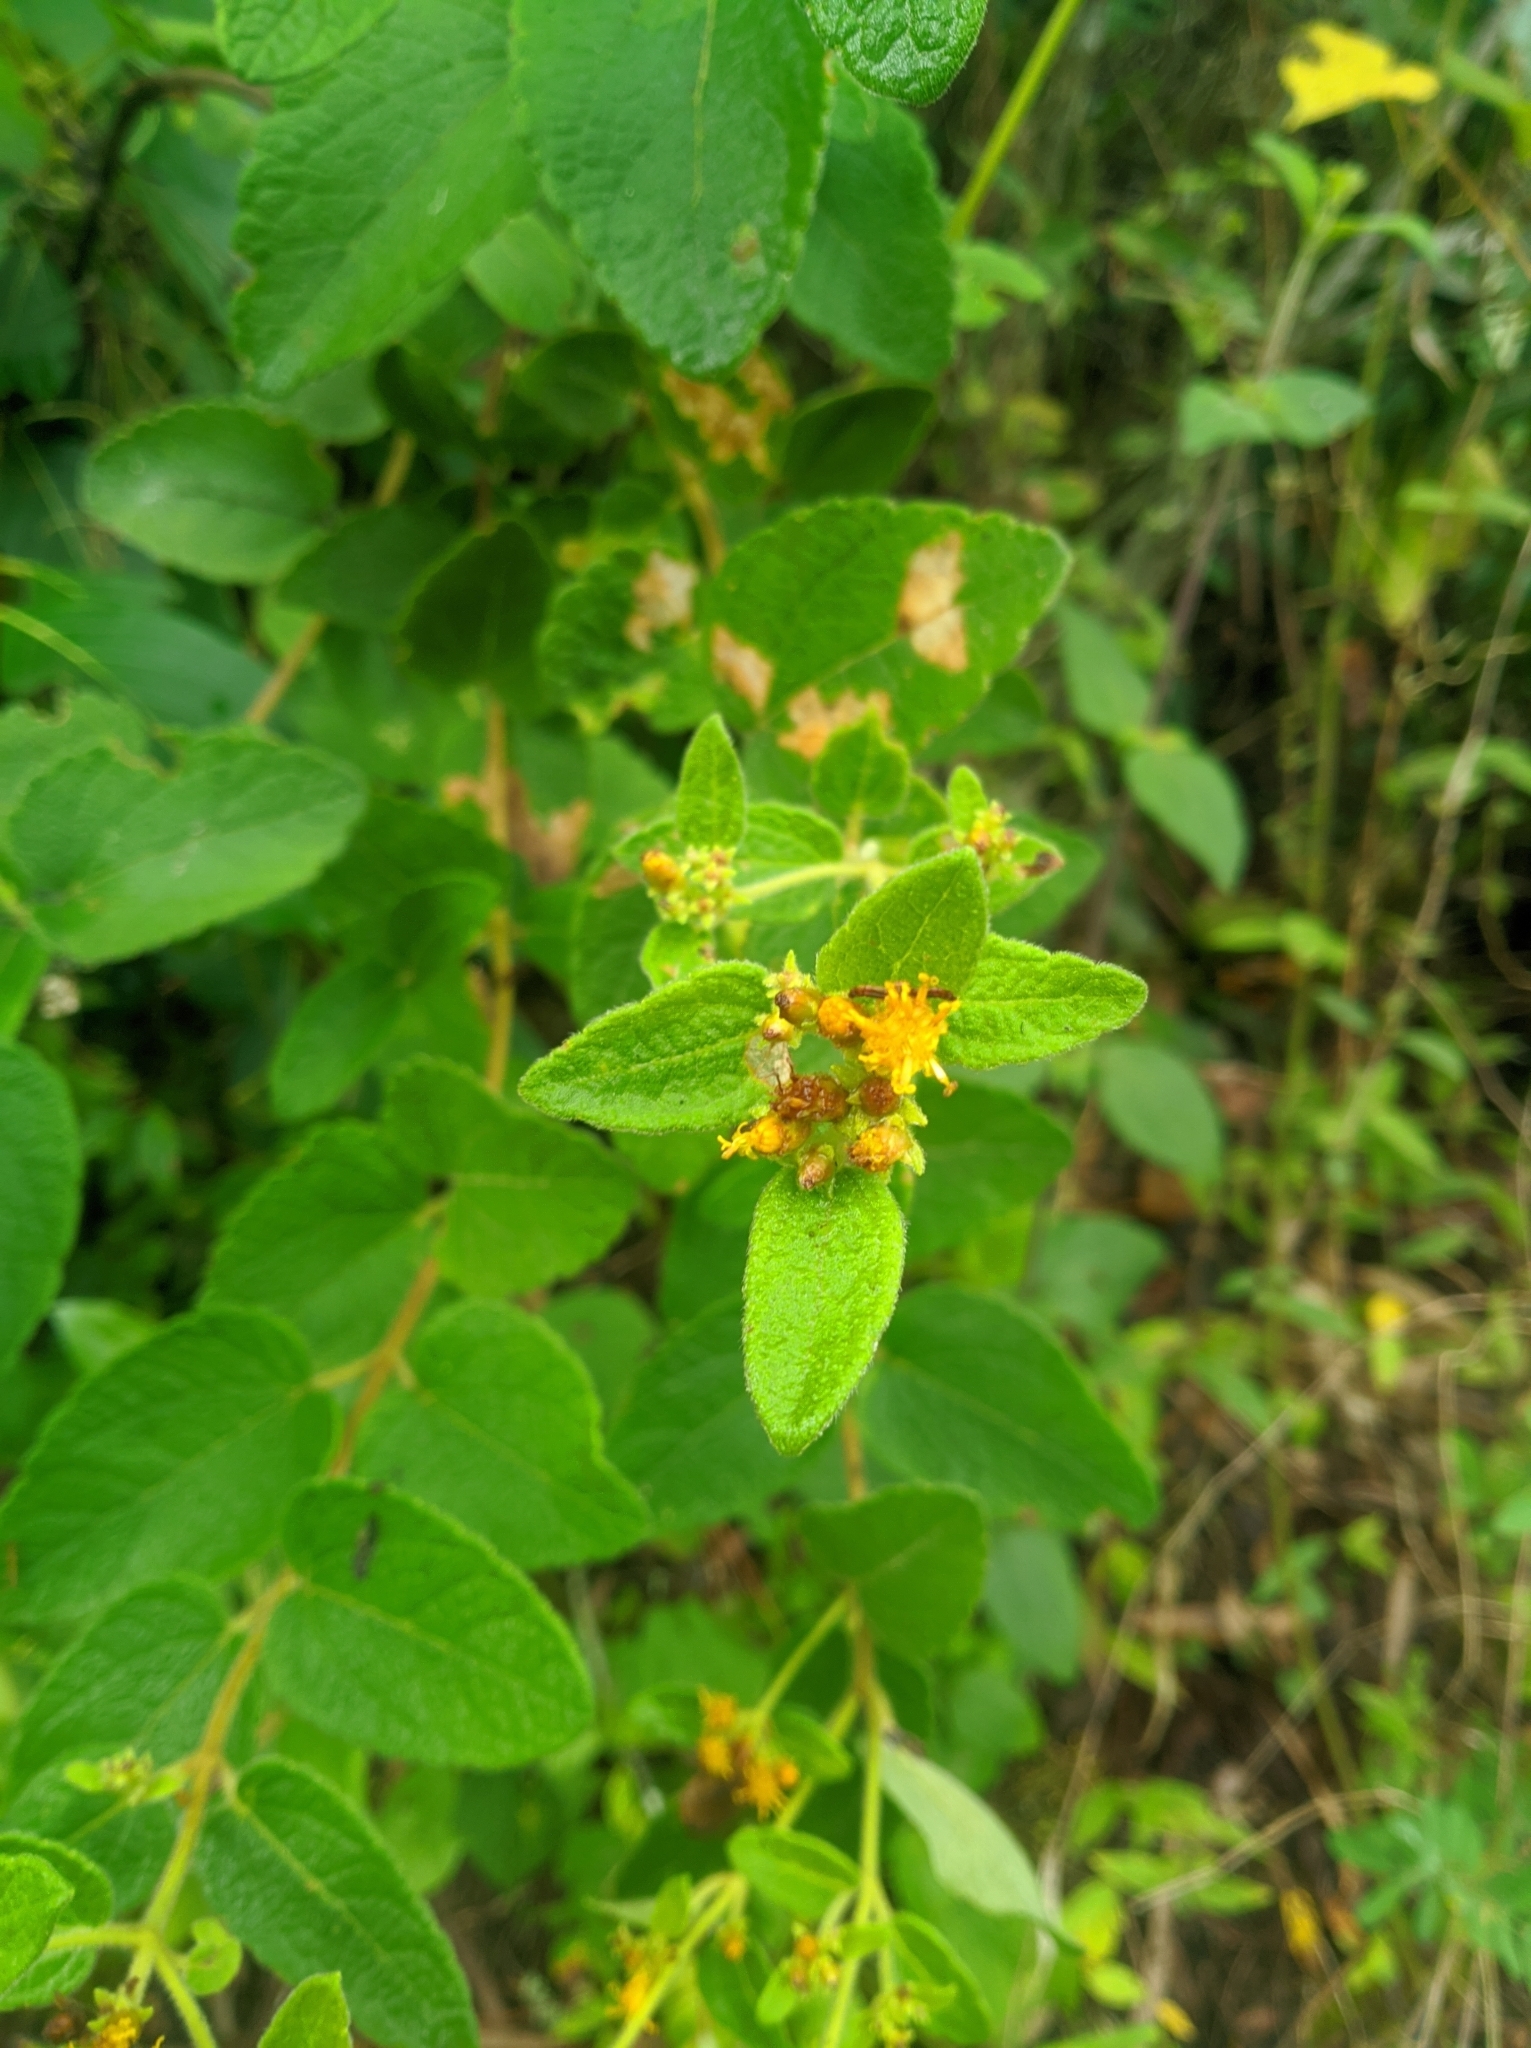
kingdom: Plantae
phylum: Tracheophyta
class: Magnoliopsida
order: Asterales
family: Asteraceae
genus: Calea
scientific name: Calea perijaensis
